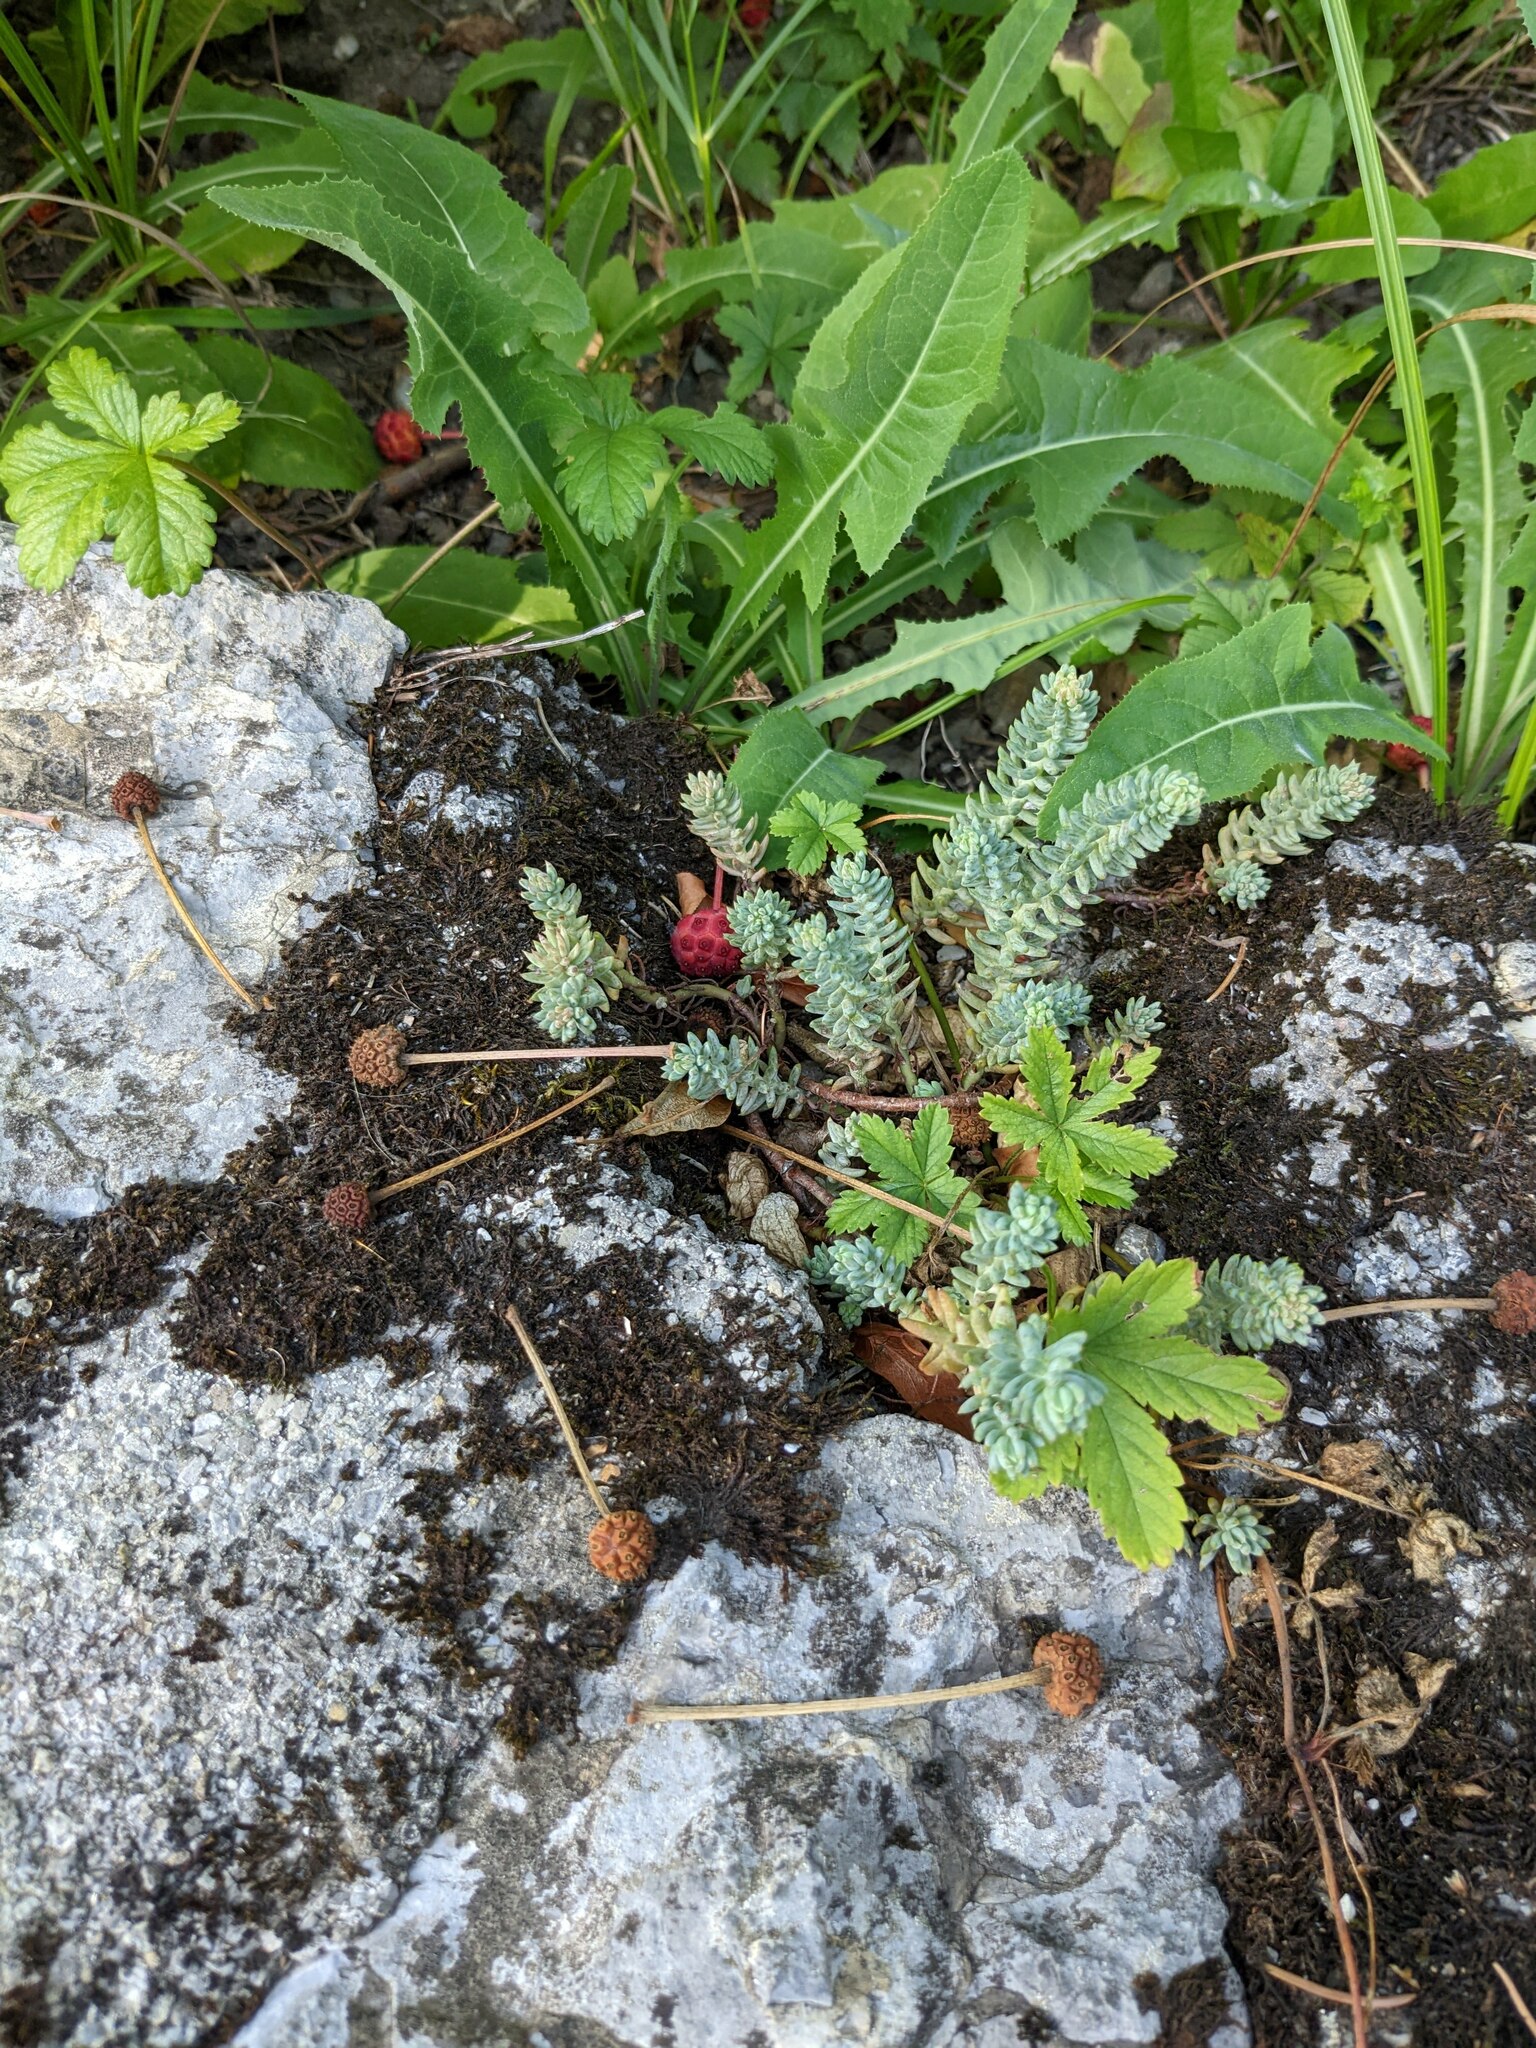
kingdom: Plantae
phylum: Tracheophyta
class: Magnoliopsida
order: Saxifragales
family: Crassulaceae
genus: Petrosedum
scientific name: Petrosedum
